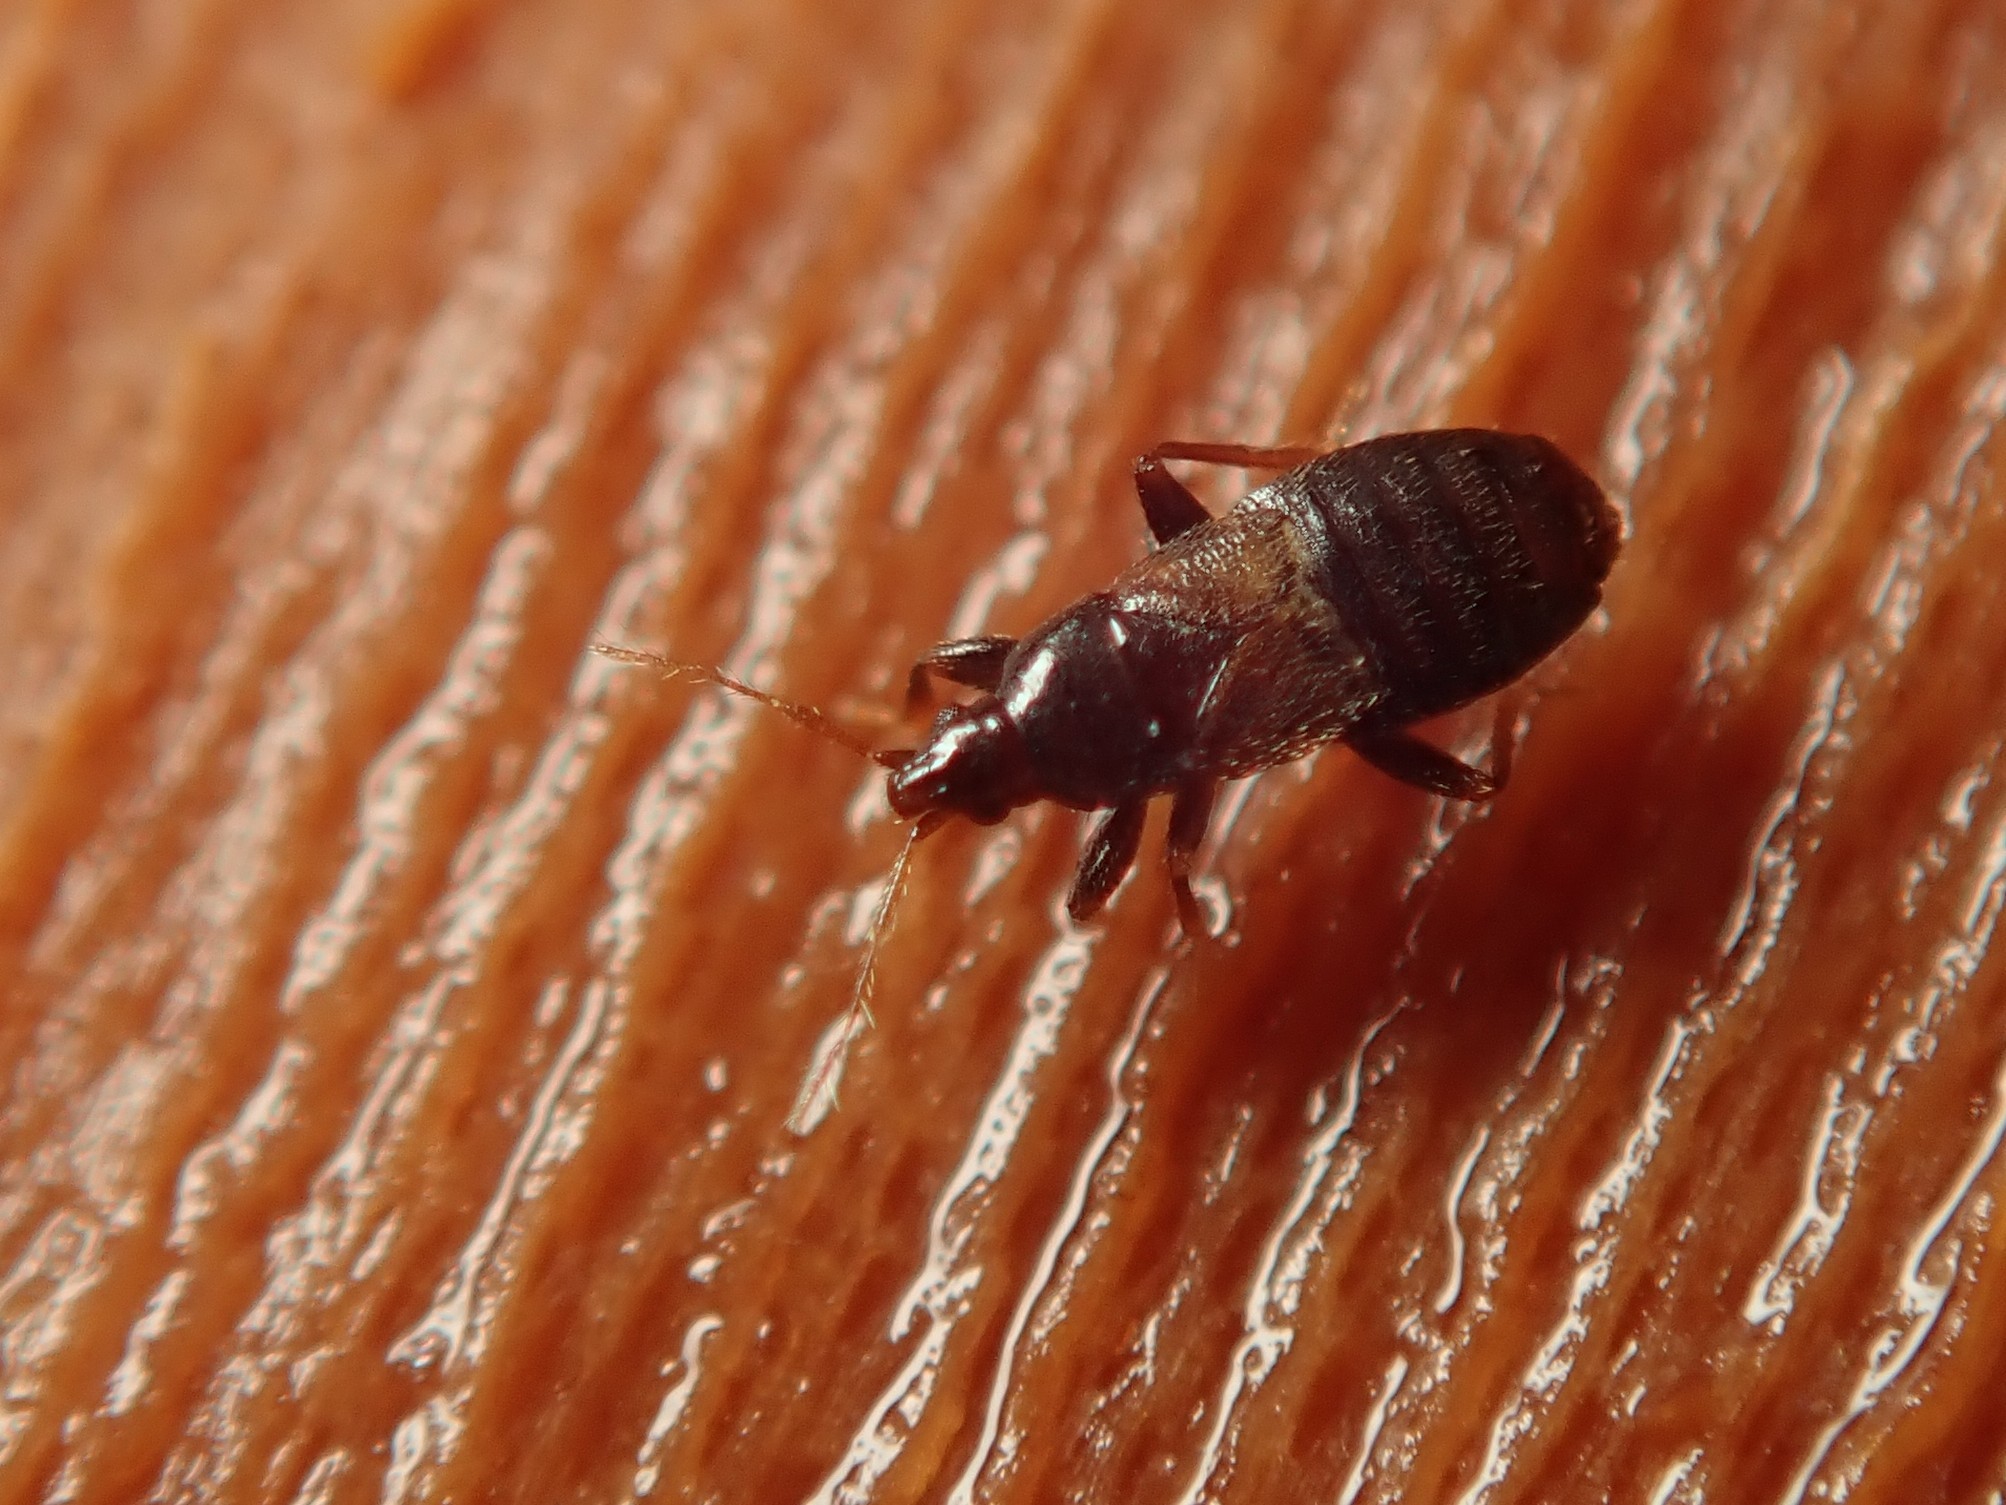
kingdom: Animalia
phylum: Arthropoda
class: Insecta
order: Hemiptera
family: Anthocoridae
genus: Xylocoris
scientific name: Xylocoris cursitans
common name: Minute pirate bug
